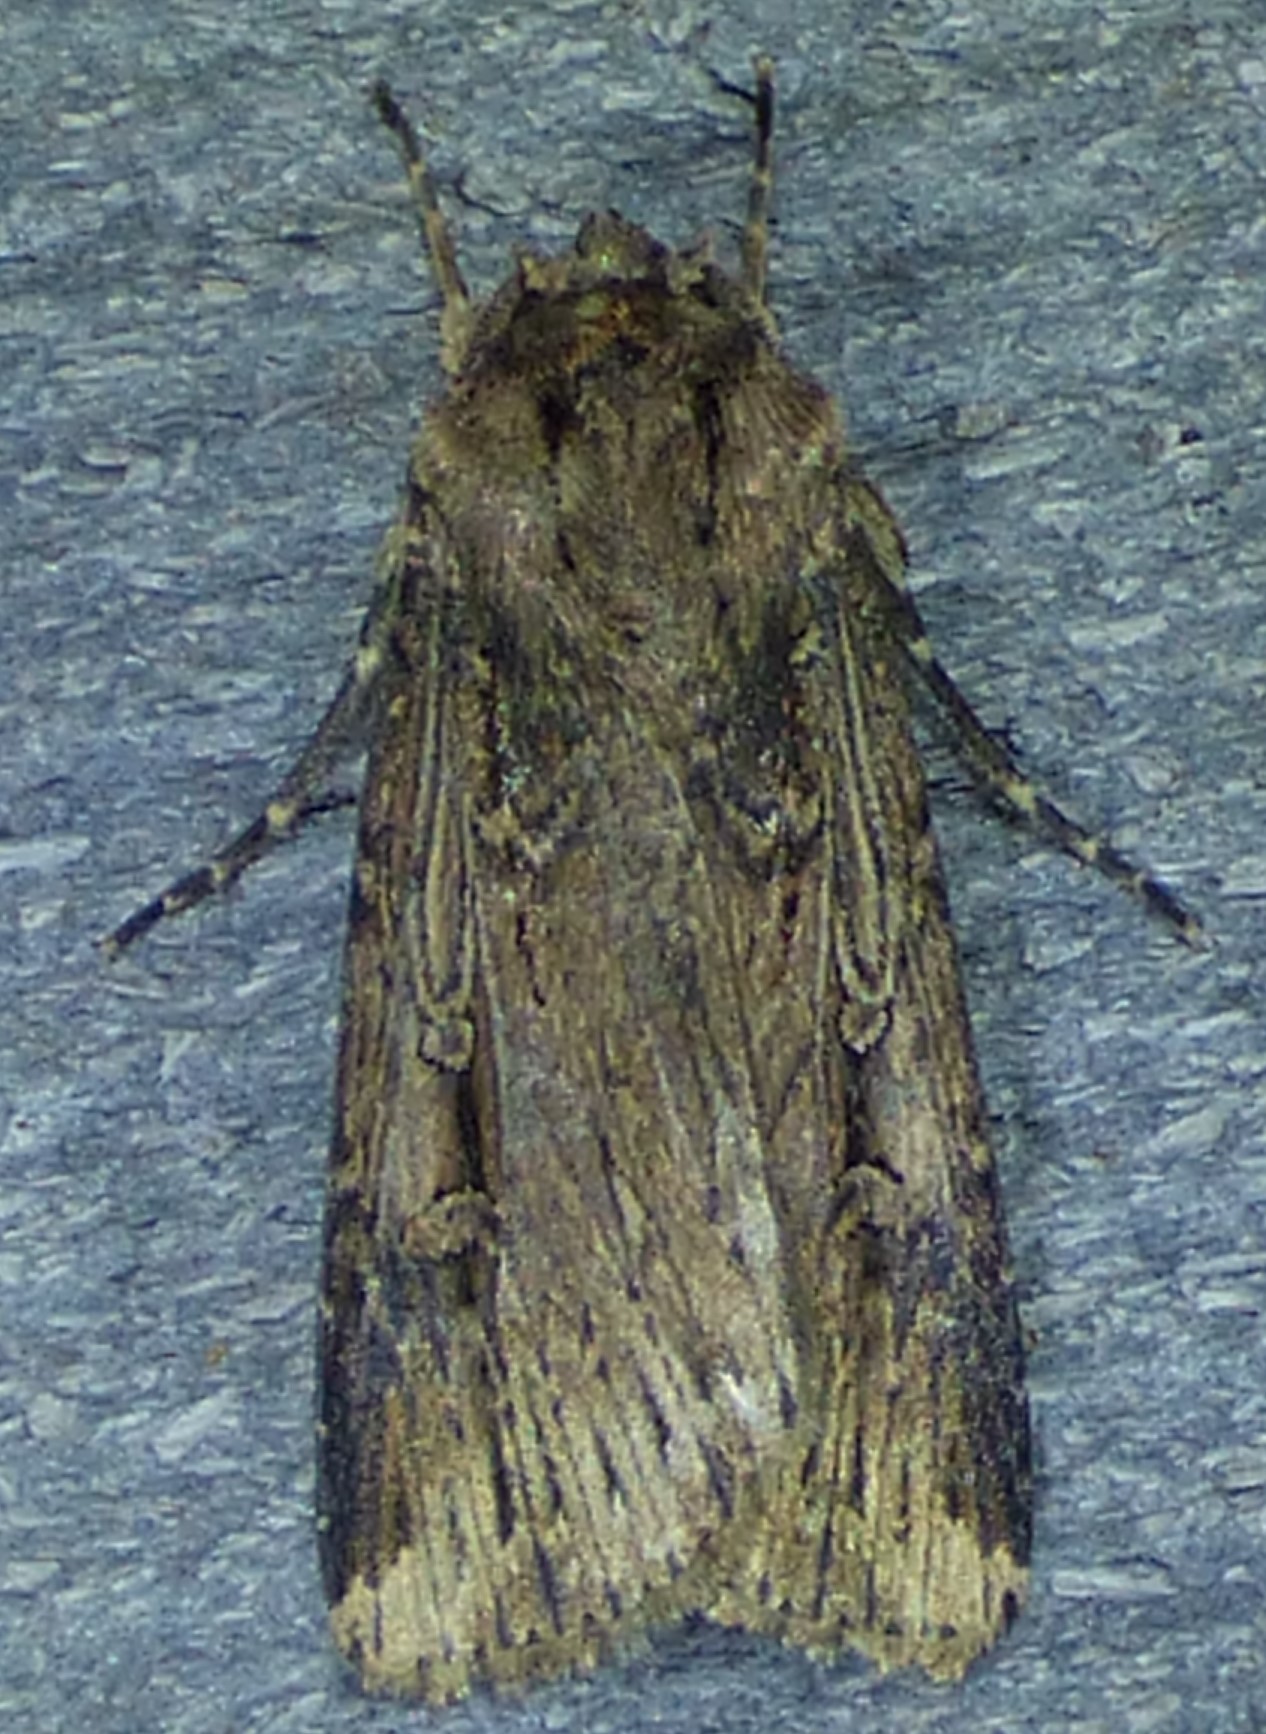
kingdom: Animalia
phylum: Arthropoda
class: Insecta
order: Lepidoptera
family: Noctuidae
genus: Feltia
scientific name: Feltia subterranea
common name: Granulate cutworm
